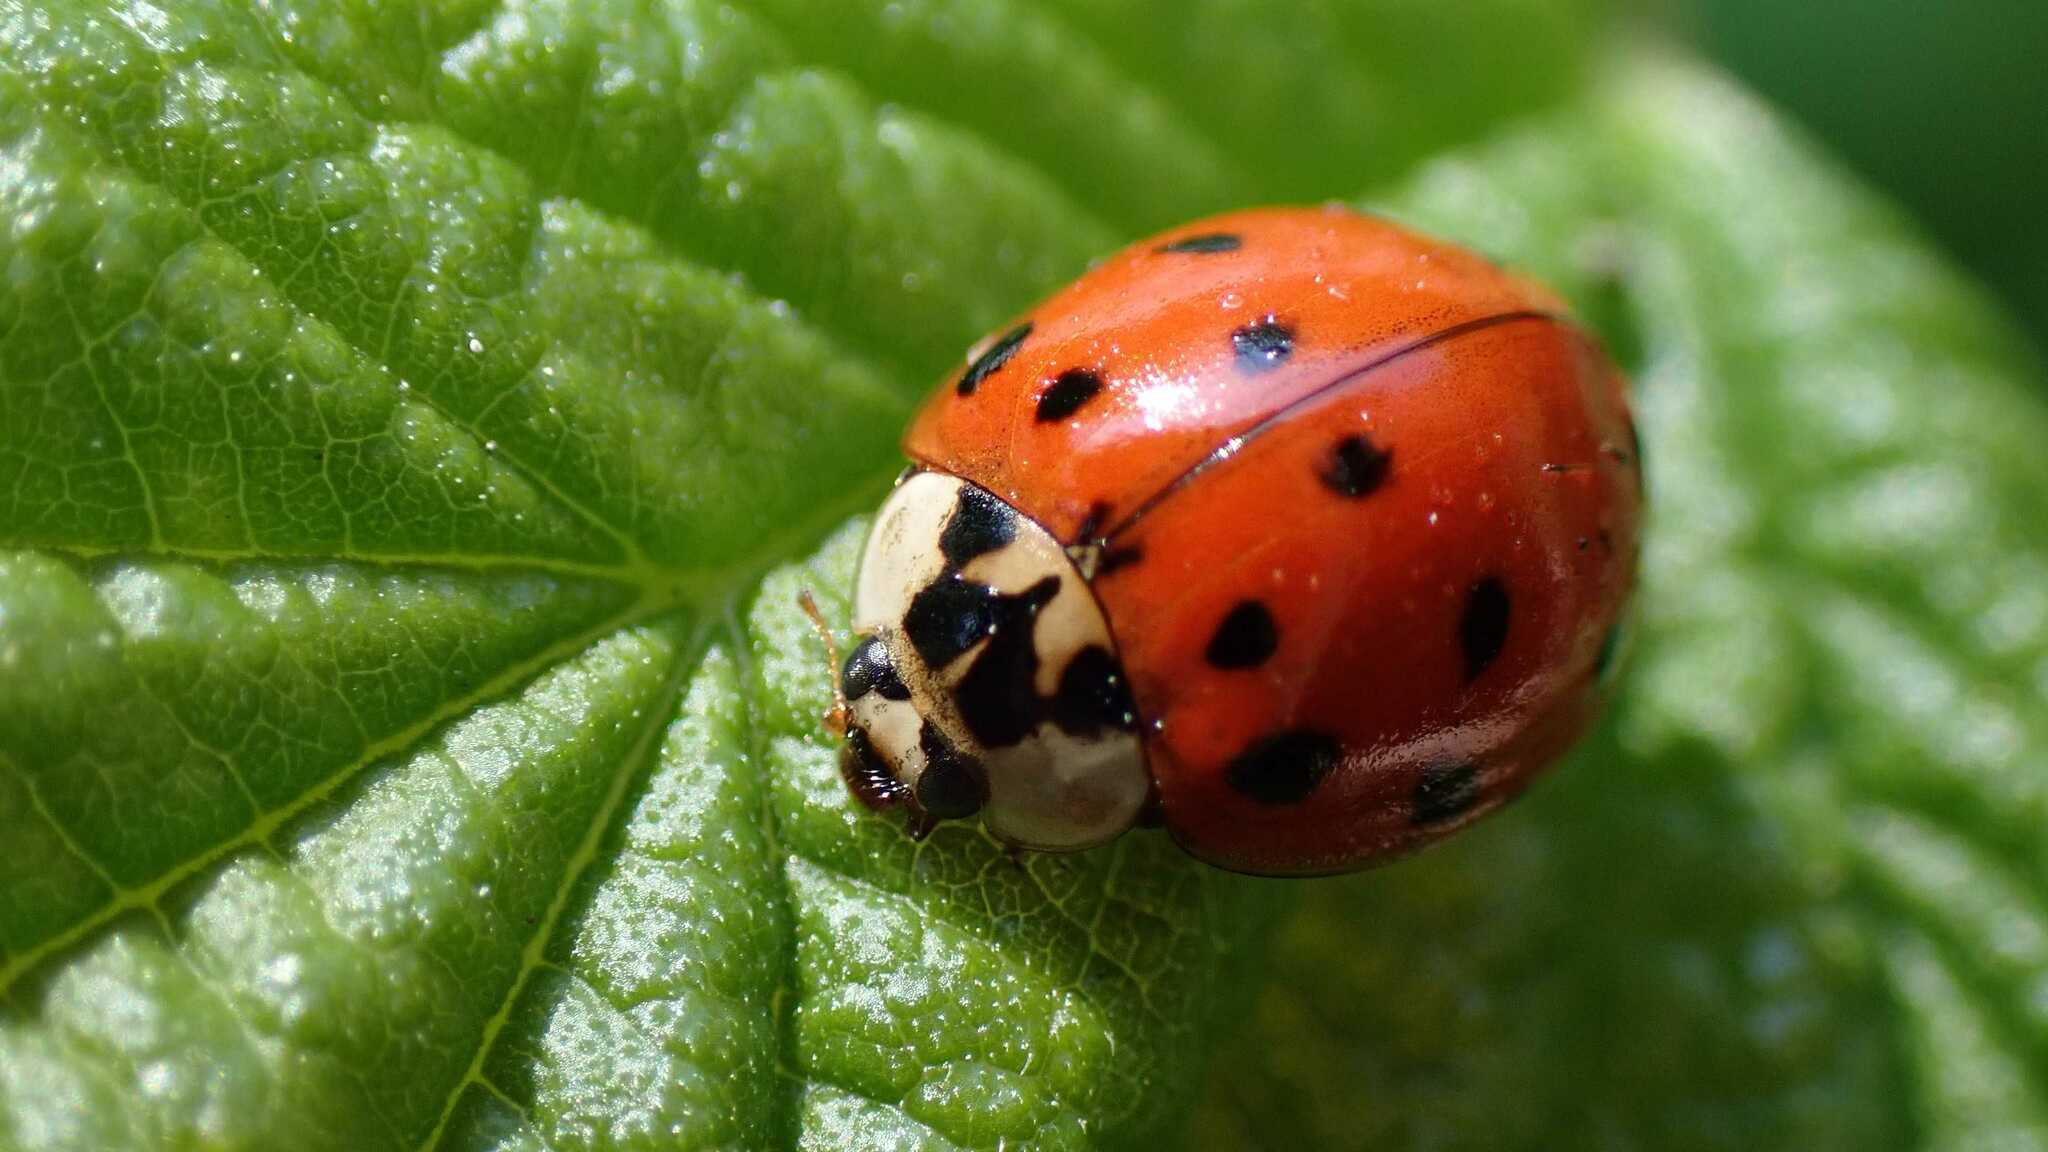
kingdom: Animalia
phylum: Arthropoda
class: Insecta
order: Coleoptera
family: Coccinellidae
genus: Harmonia
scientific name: Harmonia axyridis
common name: Harlequin ladybird
